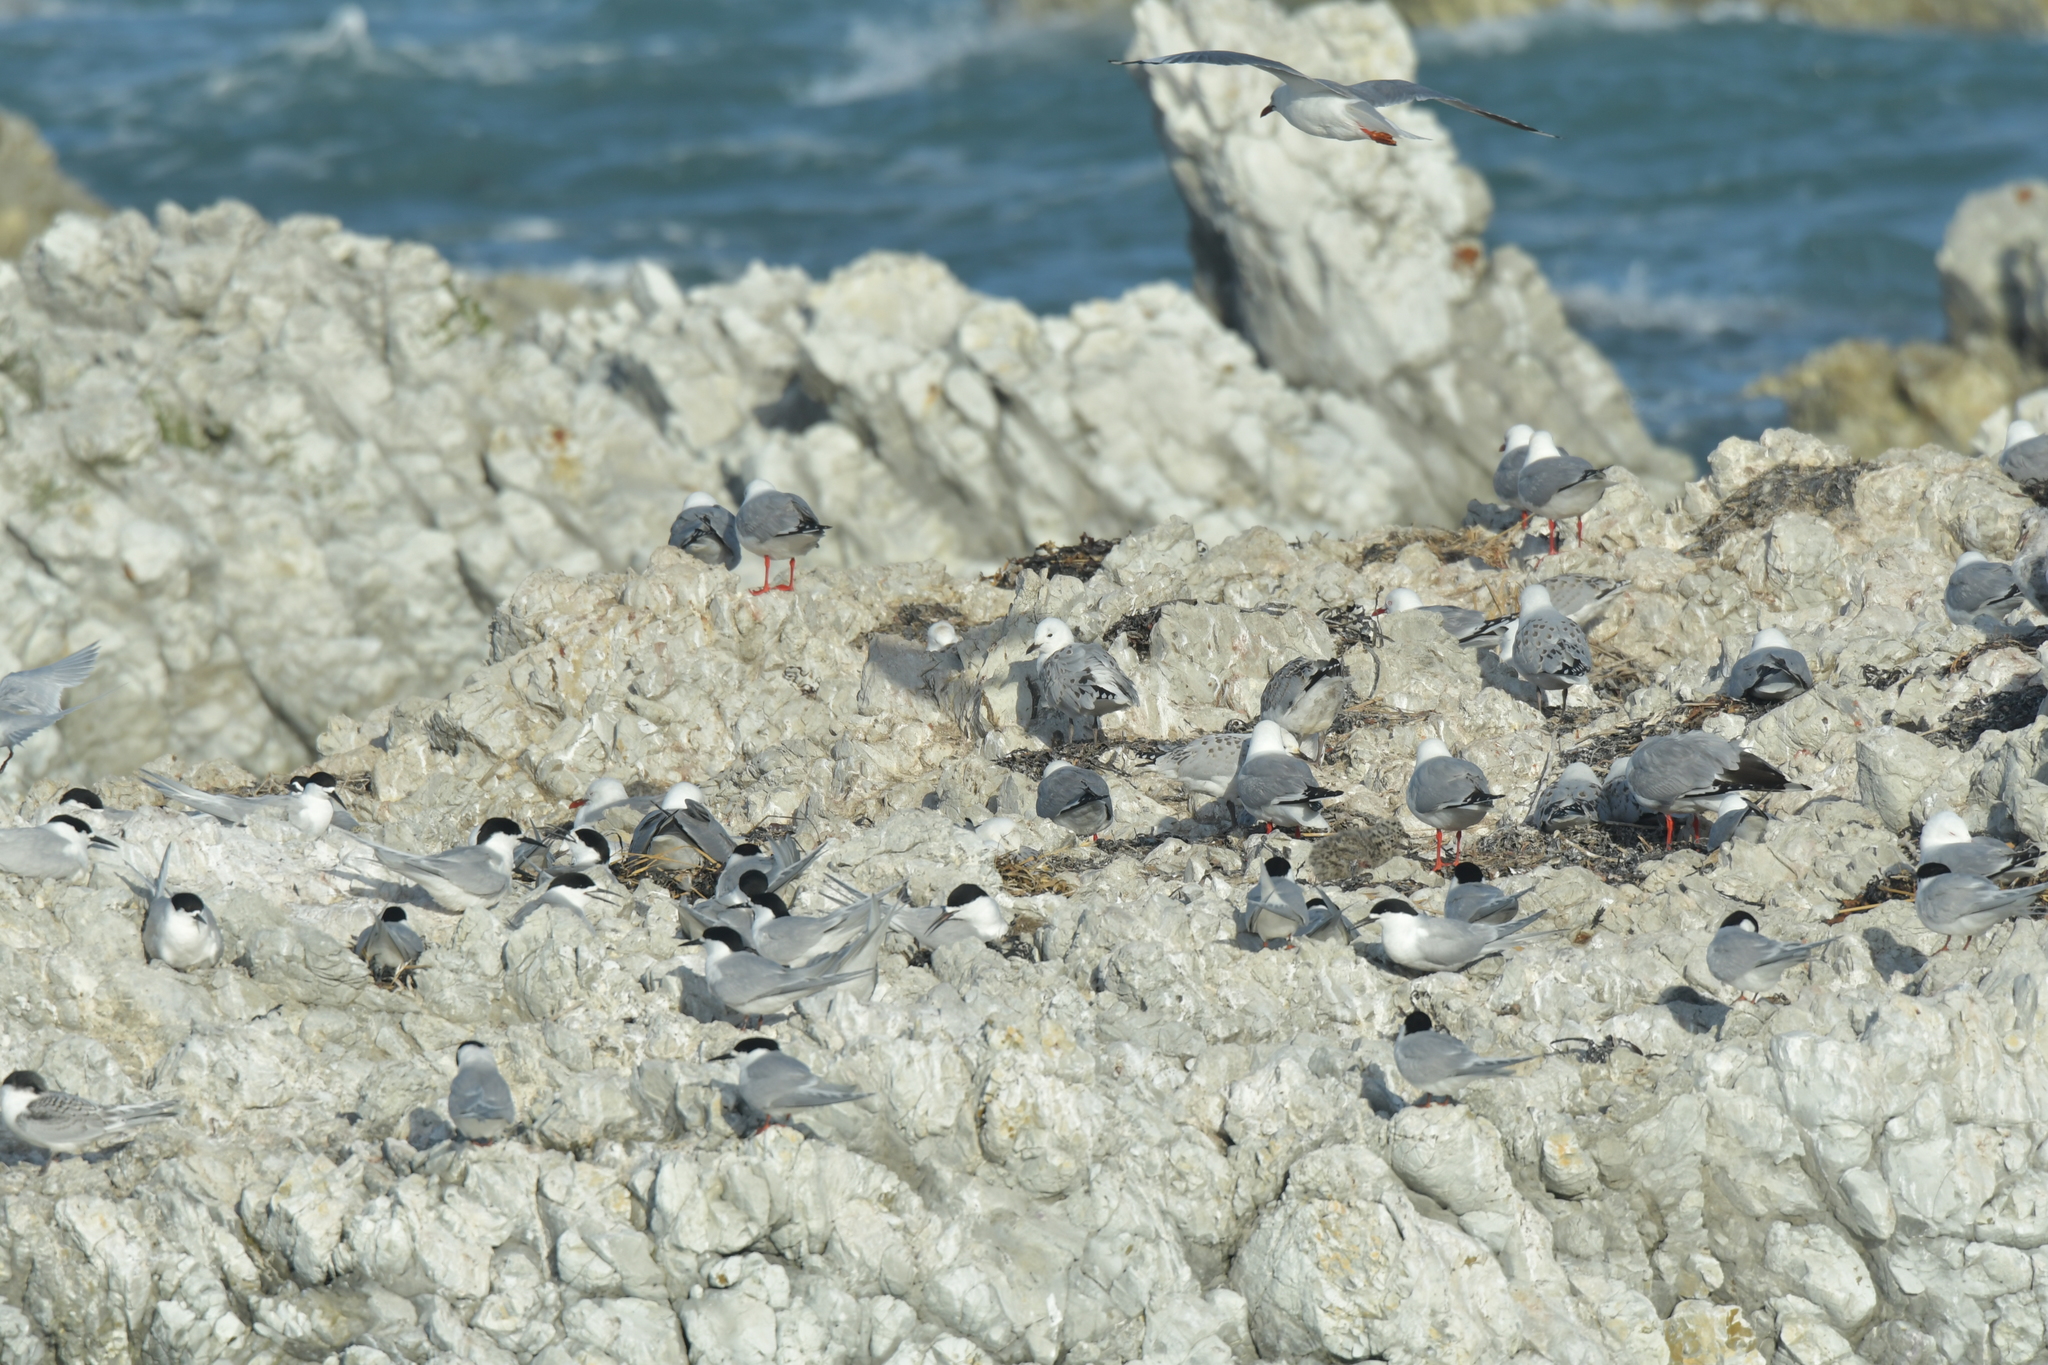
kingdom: Animalia
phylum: Chordata
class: Aves
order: Charadriiformes
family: Laridae
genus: Sterna
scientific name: Sterna striata
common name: White-fronted tern
